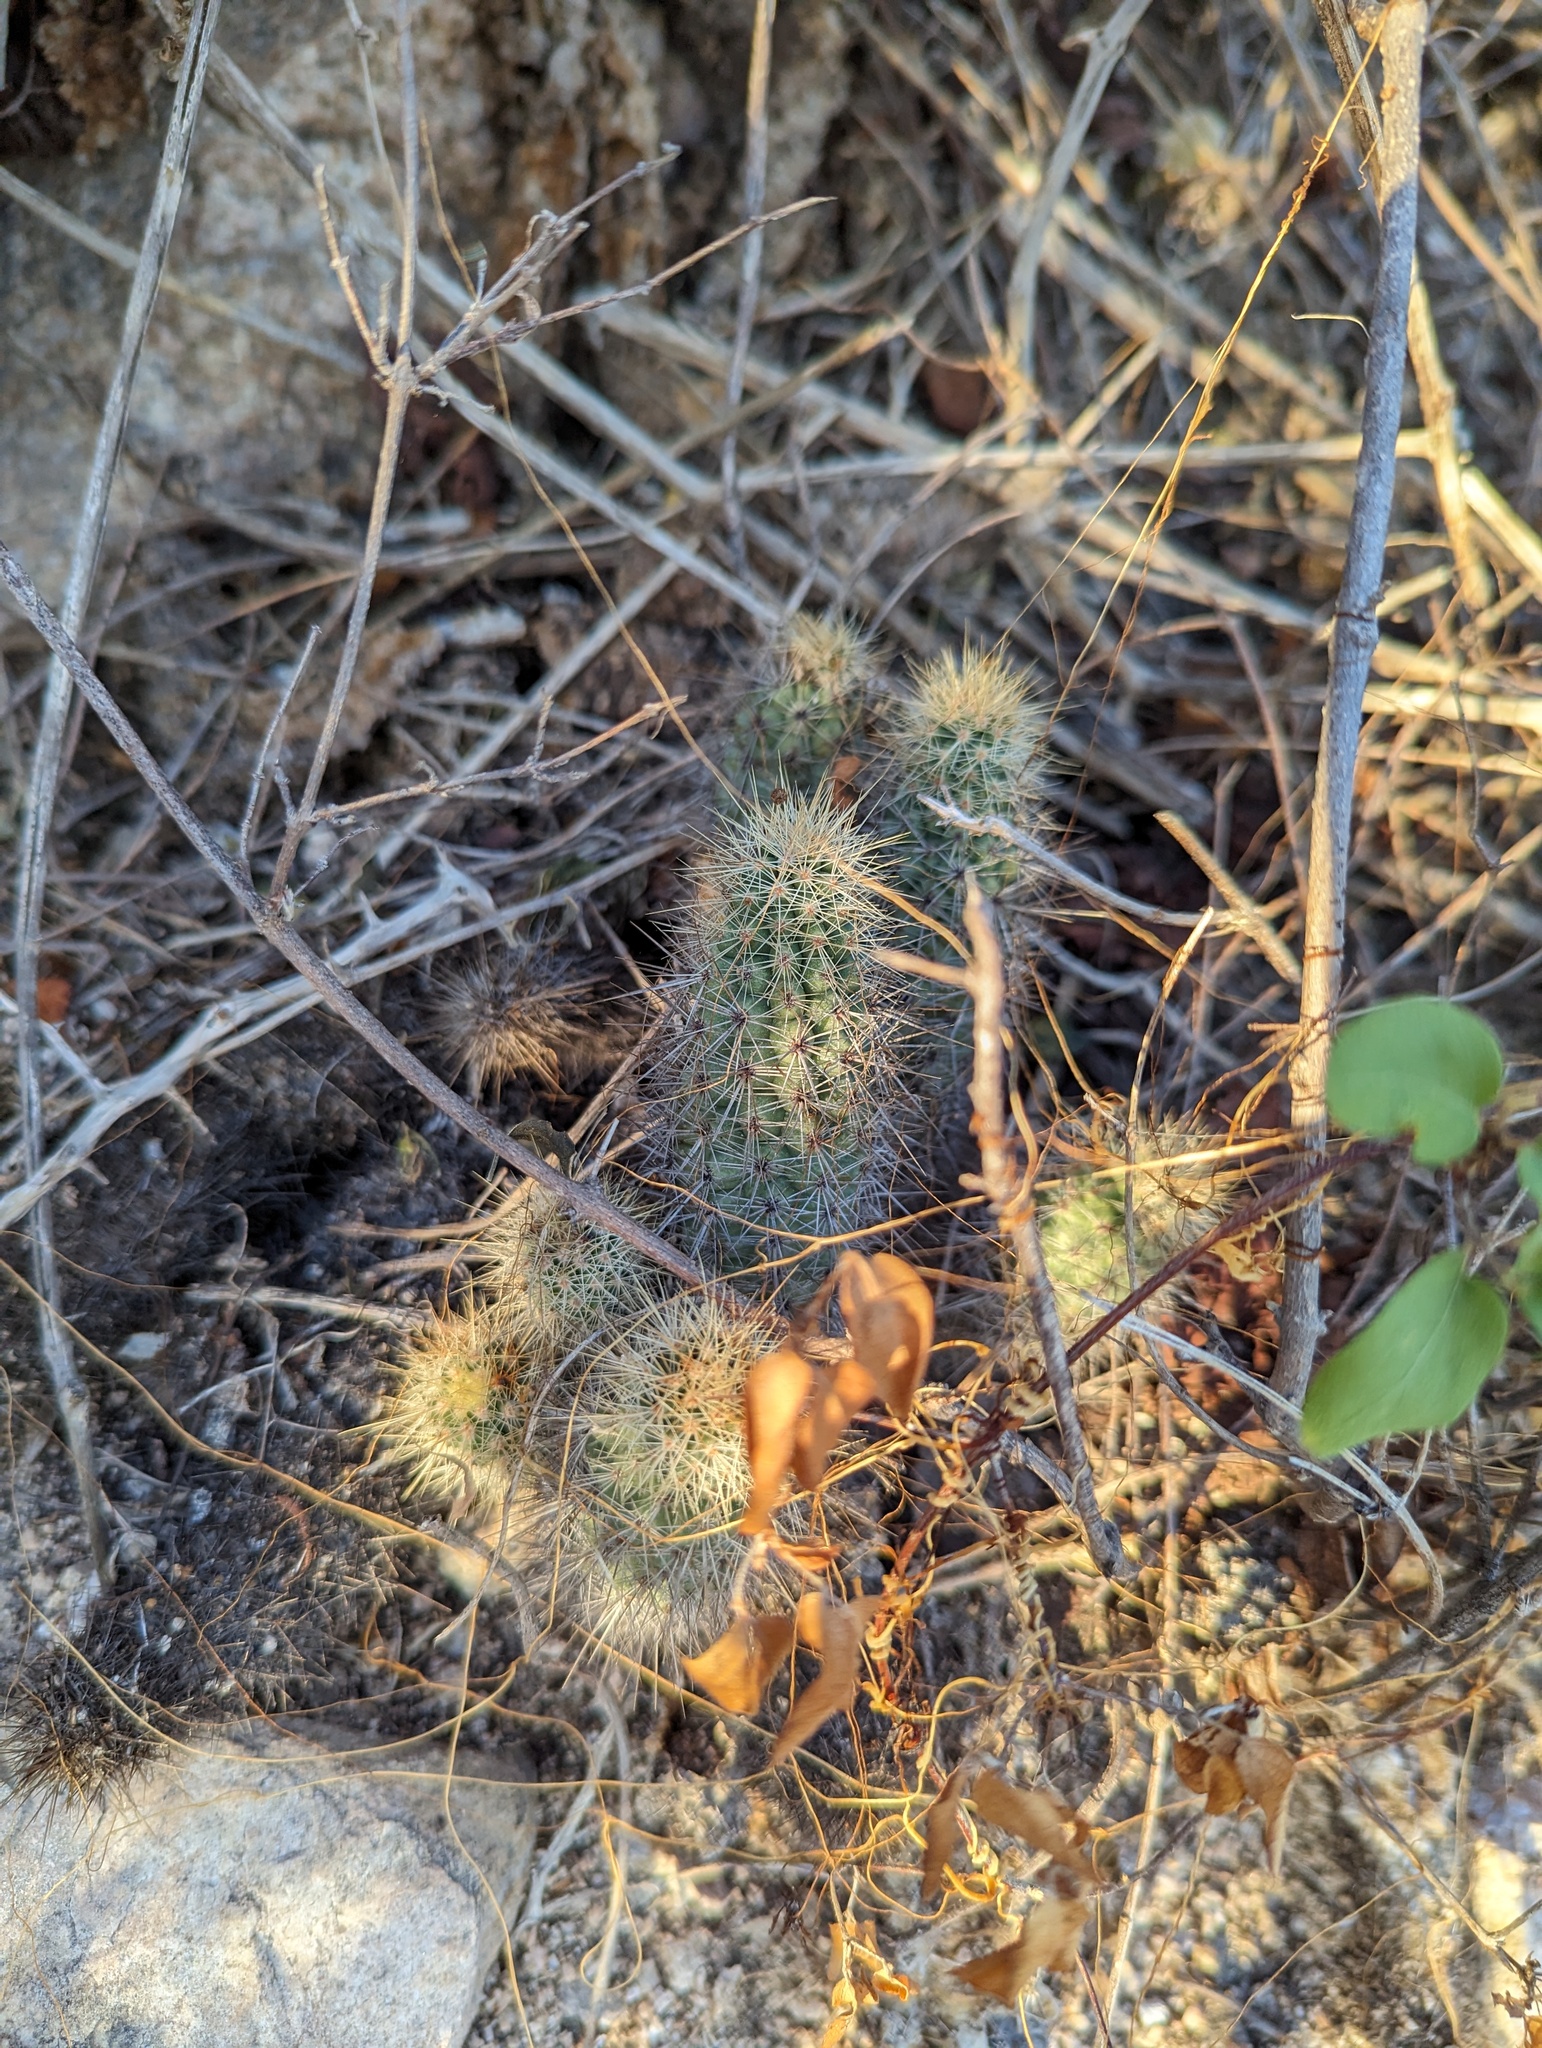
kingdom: Plantae
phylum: Tracheophyta
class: Magnoliopsida
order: Caryophyllales
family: Cactaceae
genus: Echinocereus
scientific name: Echinocereus brandegeei
